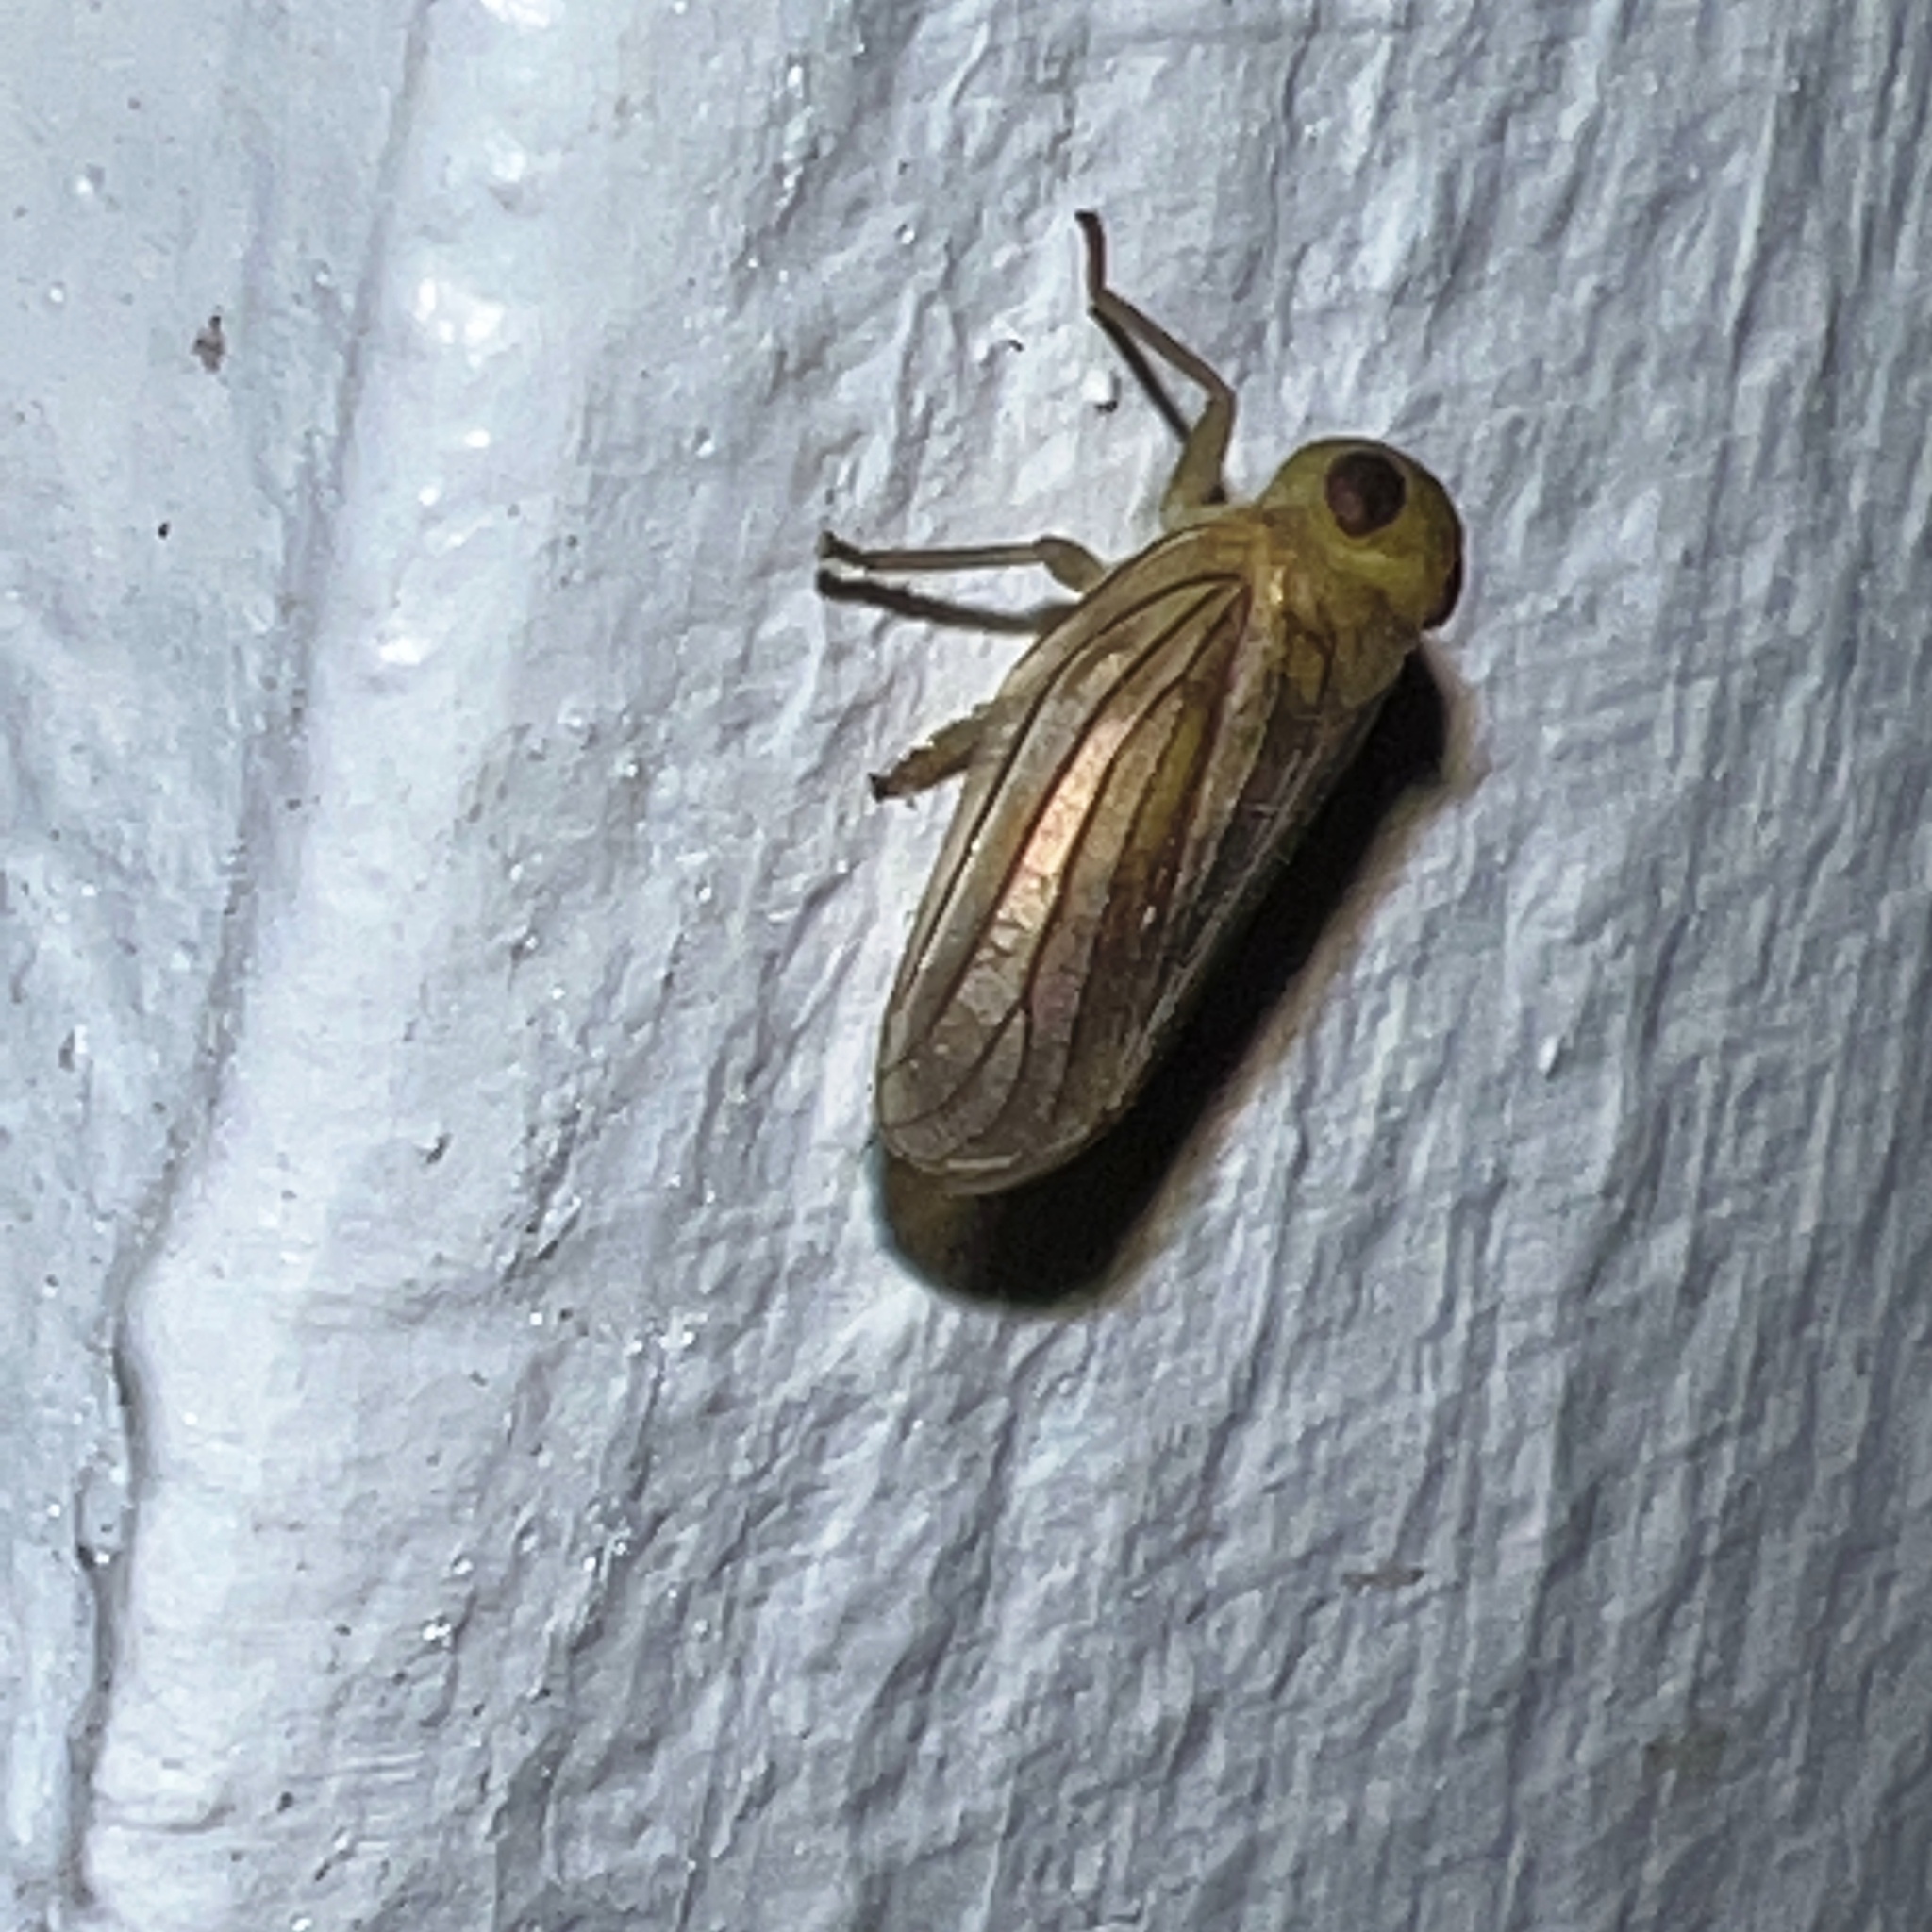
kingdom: Animalia
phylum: Arthropoda
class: Insecta
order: Hemiptera
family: Issidae
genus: Aplos
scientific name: Aplos simplex
